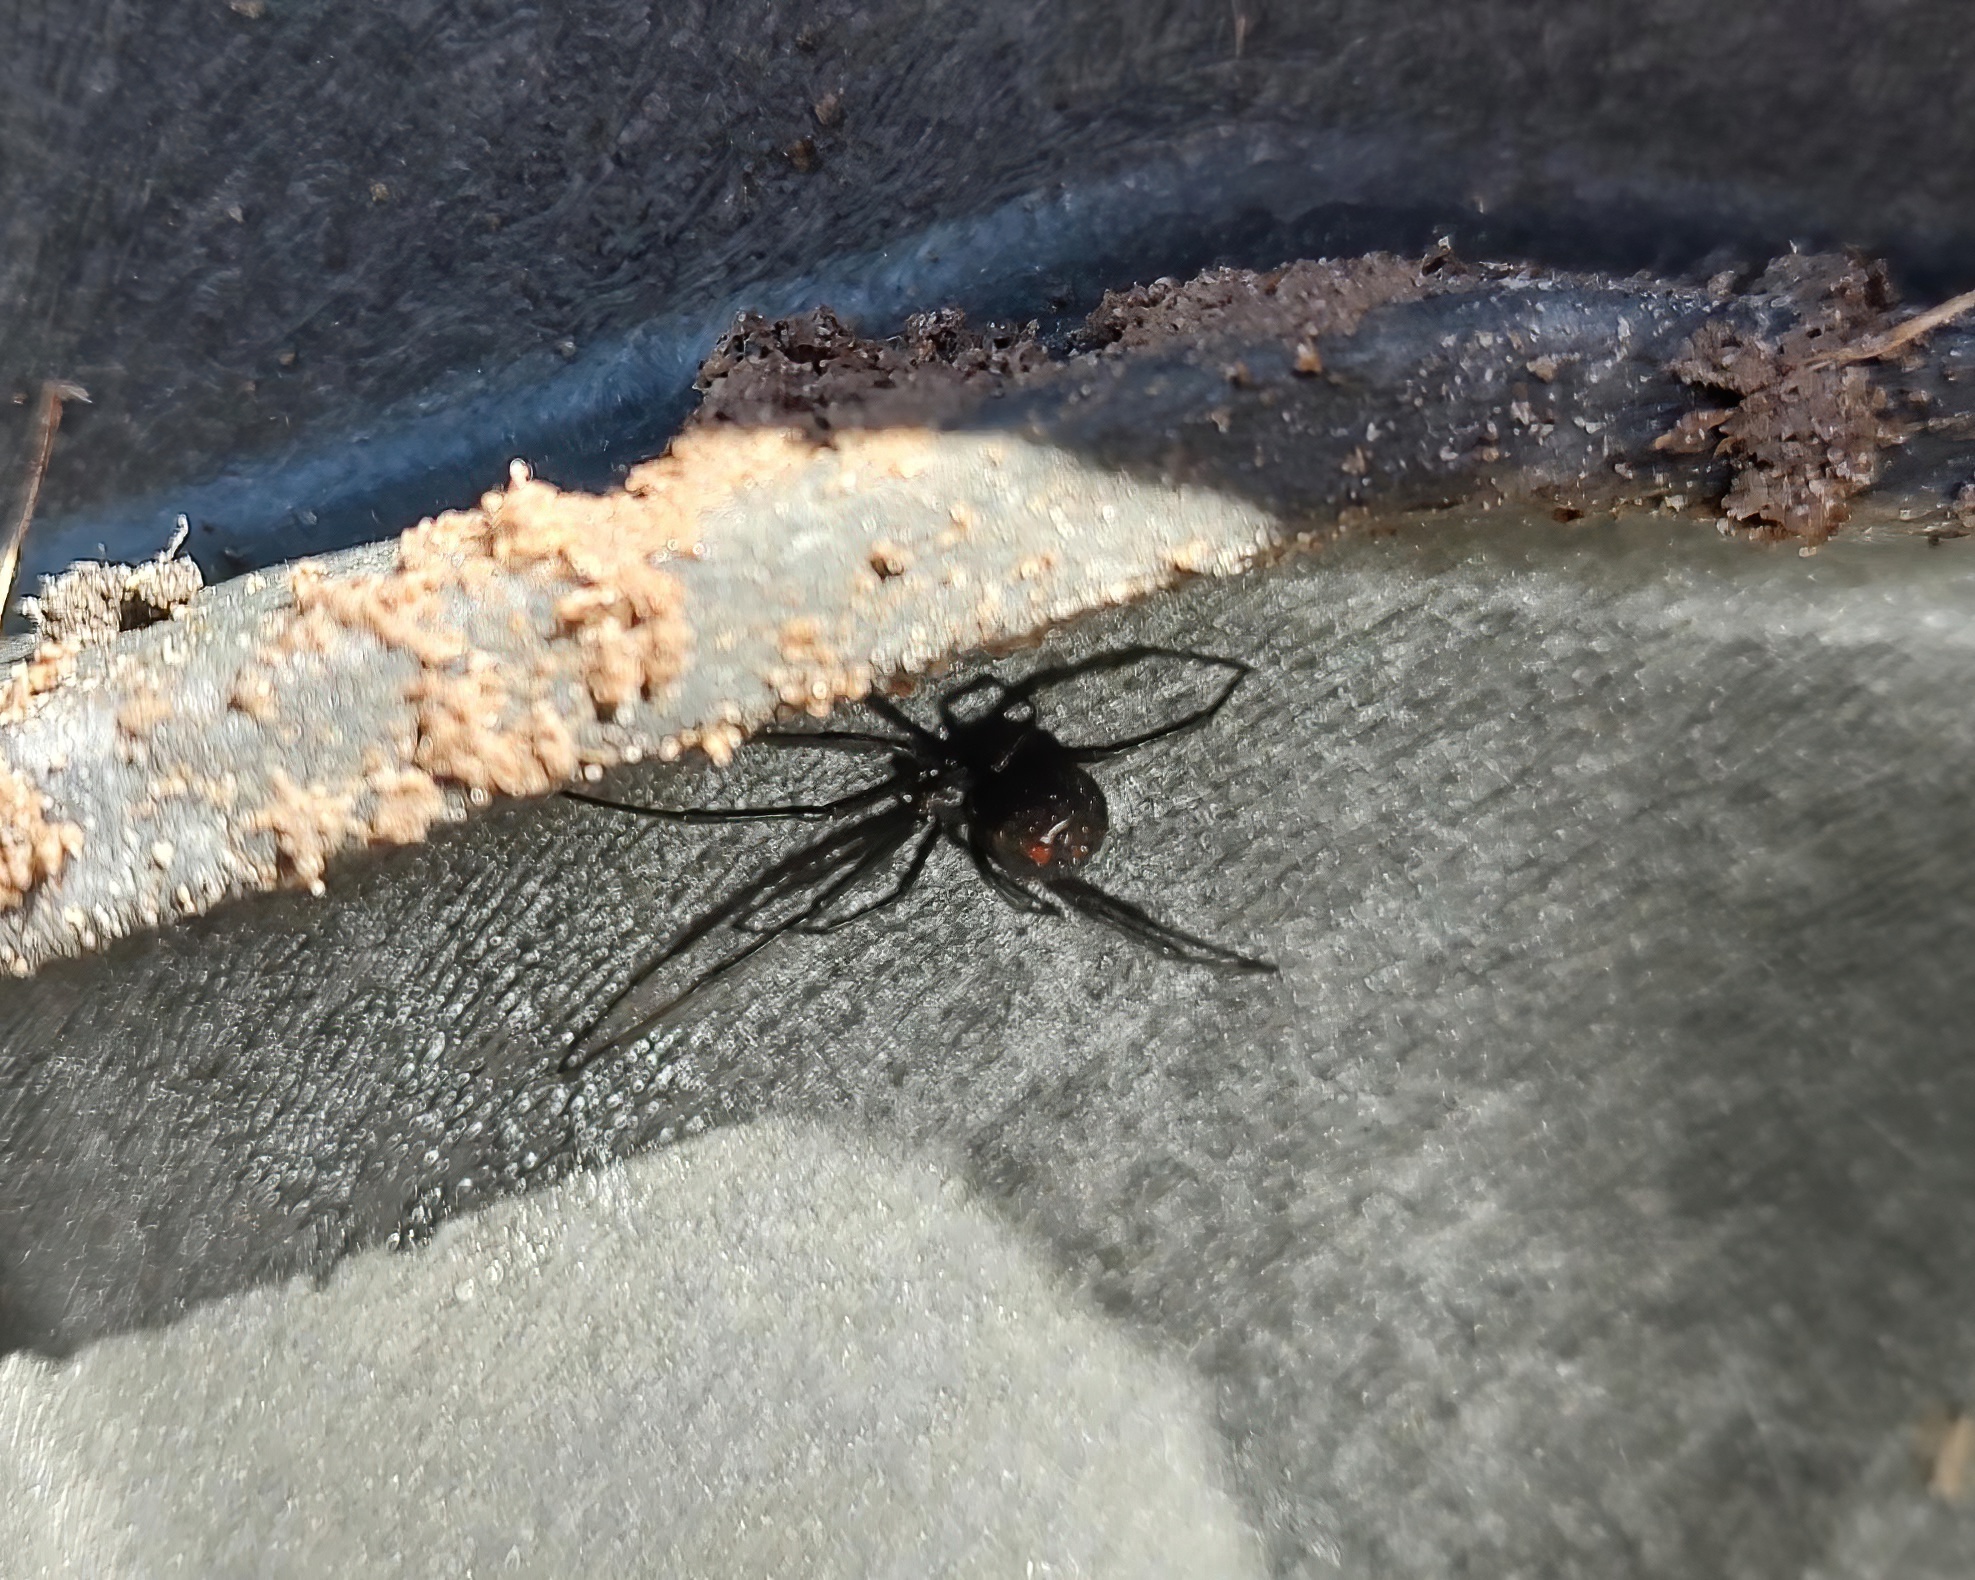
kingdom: Animalia
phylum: Arthropoda
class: Arachnida
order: Araneae
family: Theridiidae
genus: Latrodectus
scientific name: Latrodectus mactans
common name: Cobweb spiders
